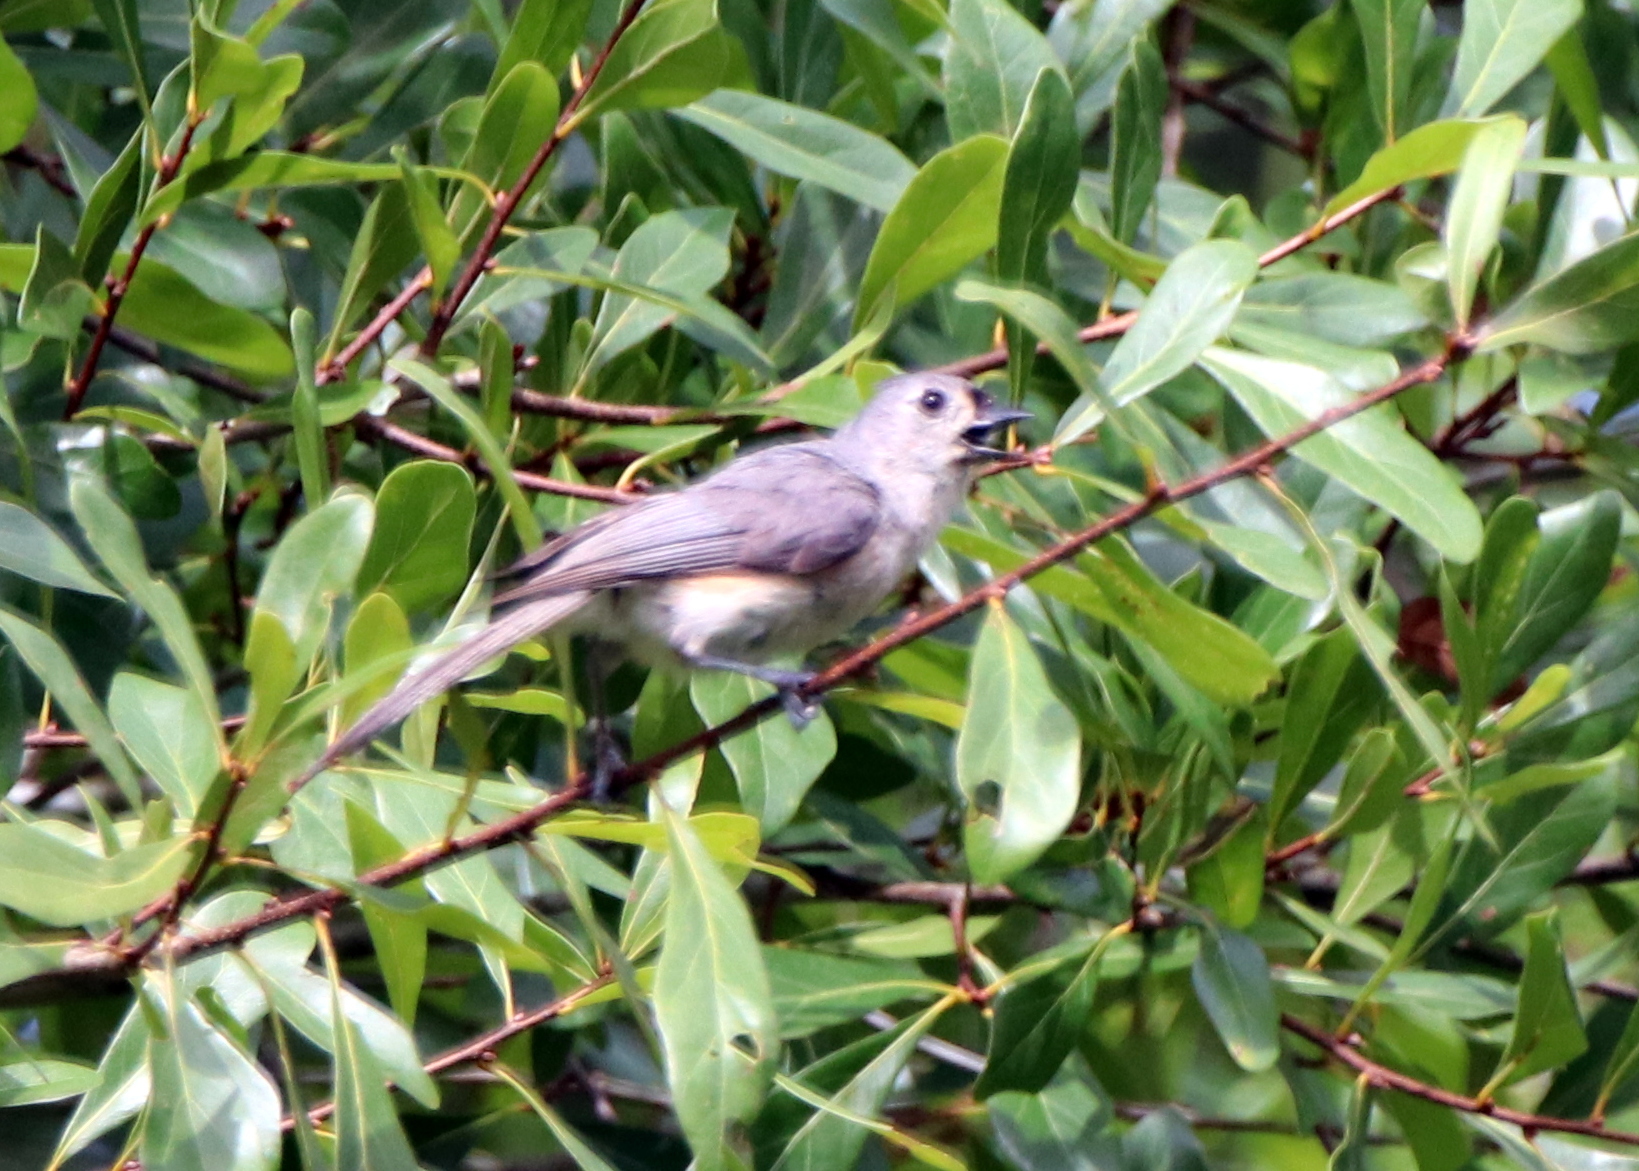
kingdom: Animalia
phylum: Chordata
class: Aves
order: Passeriformes
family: Paridae
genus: Baeolophus
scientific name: Baeolophus bicolor
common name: Tufted titmouse
